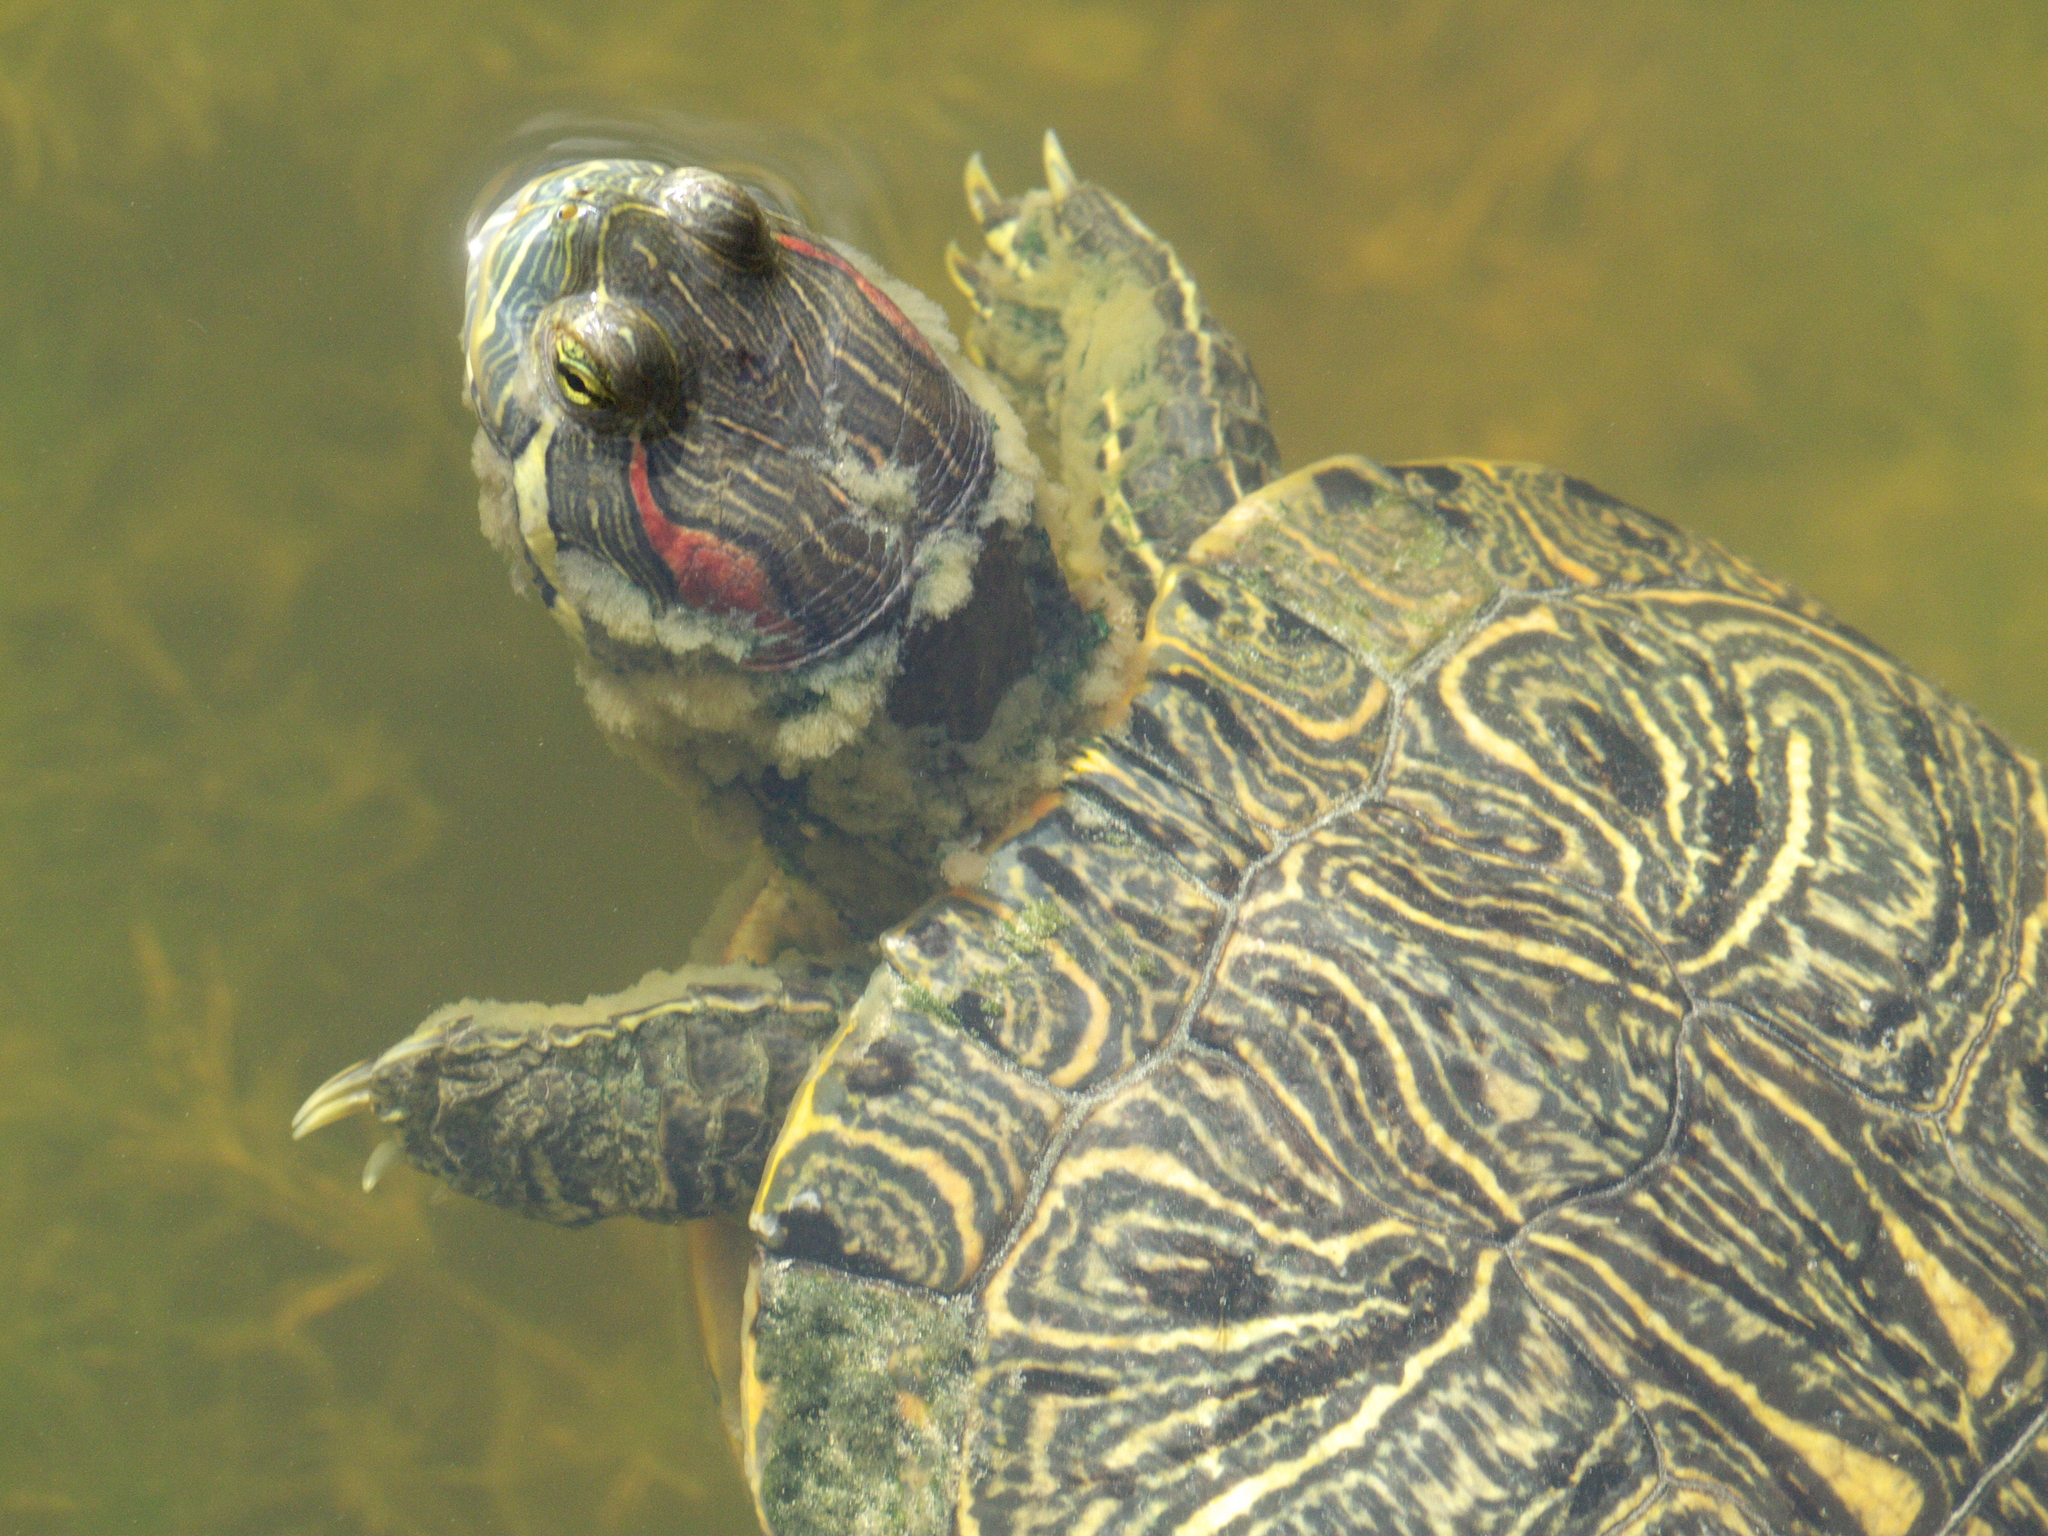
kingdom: Animalia
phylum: Chordata
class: Testudines
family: Emydidae
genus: Trachemys
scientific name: Trachemys scripta
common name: Slider
